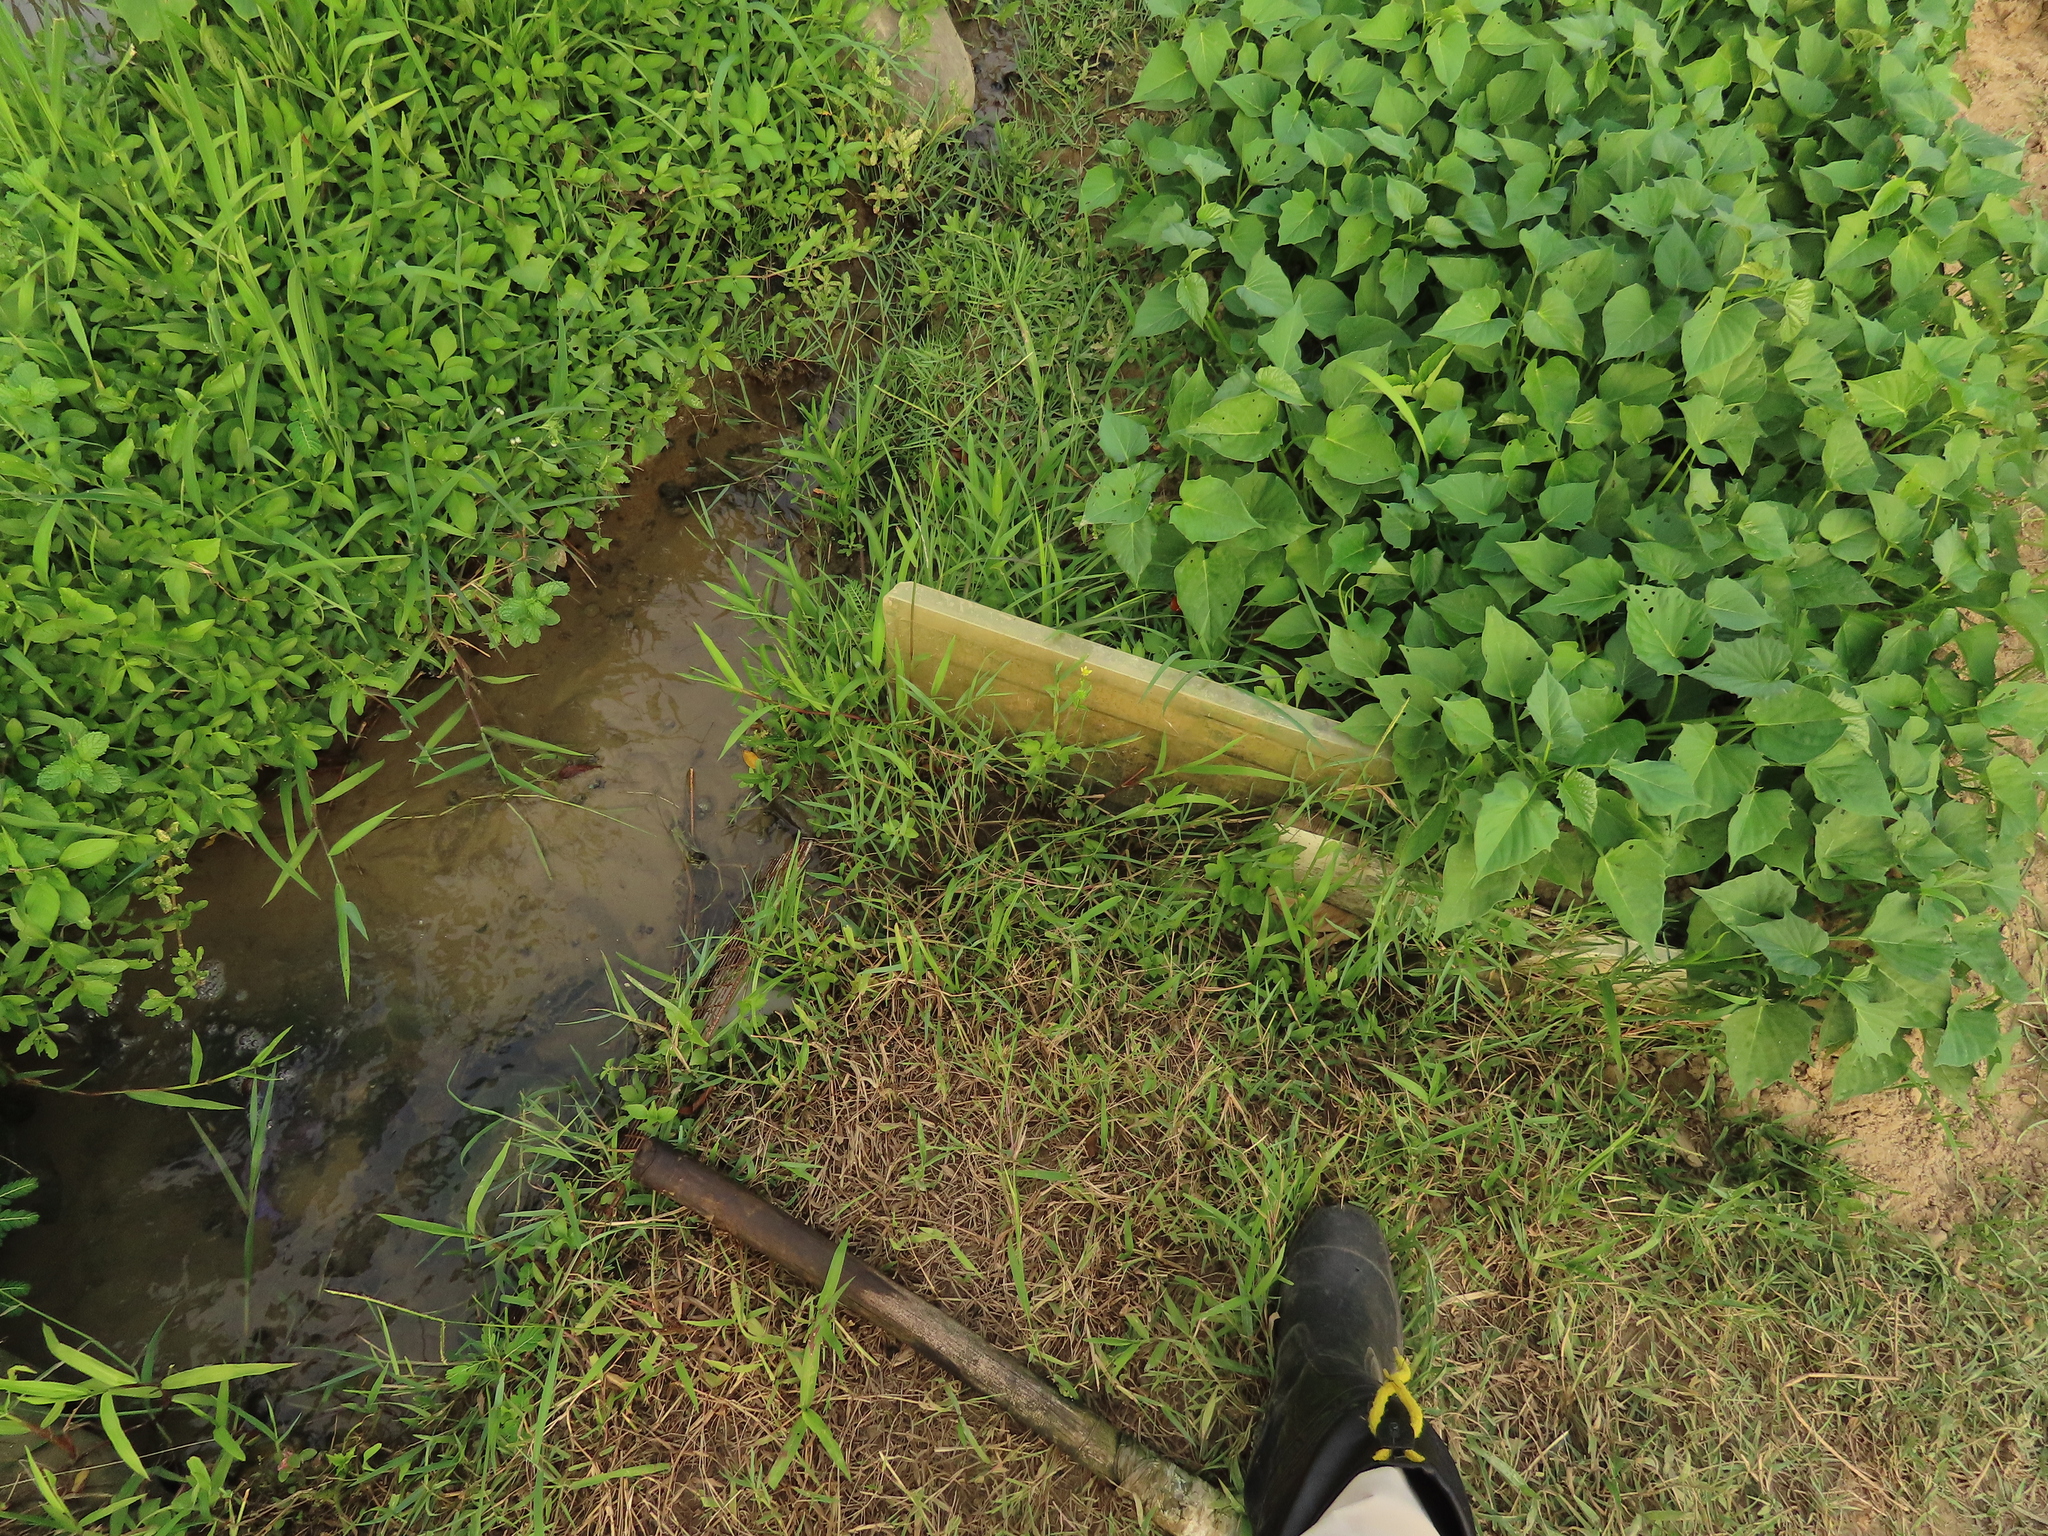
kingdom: Plantae
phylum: Tracheophyta
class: Magnoliopsida
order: Ranunculales
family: Ranunculaceae
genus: Ranunculus
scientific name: Ranunculus cantoniensis
